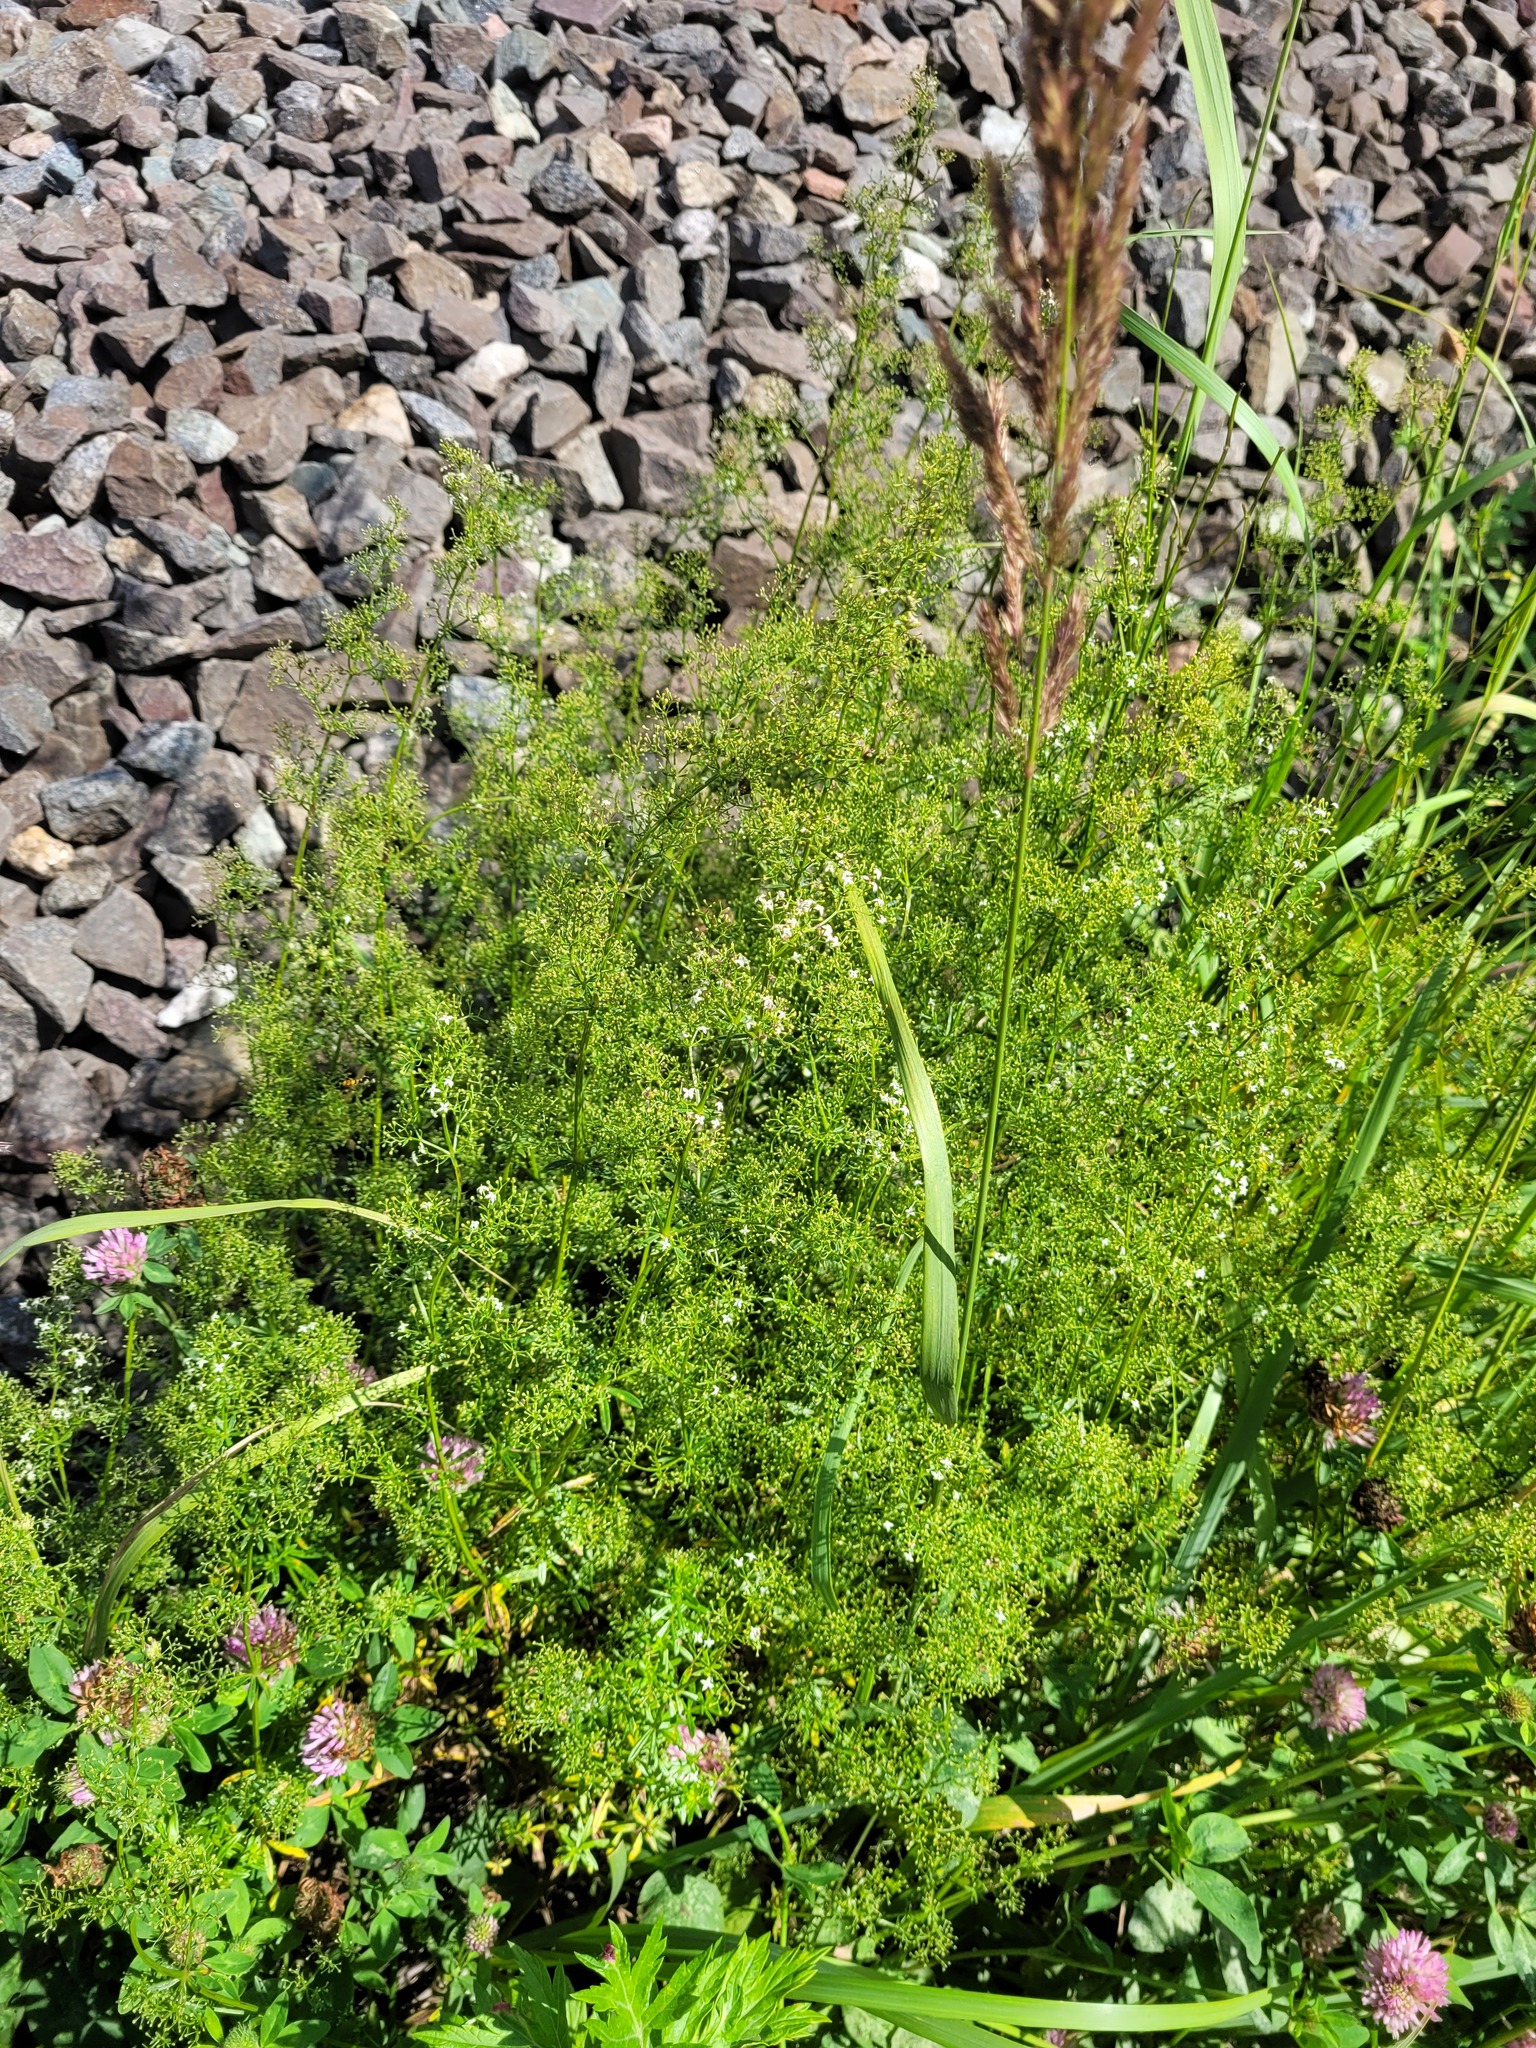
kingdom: Plantae
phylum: Tracheophyta
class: Magnoliopsida
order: Gentianales
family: Rubiaceae
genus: Galium
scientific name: Galium mollugo
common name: Hedge bedstraw
